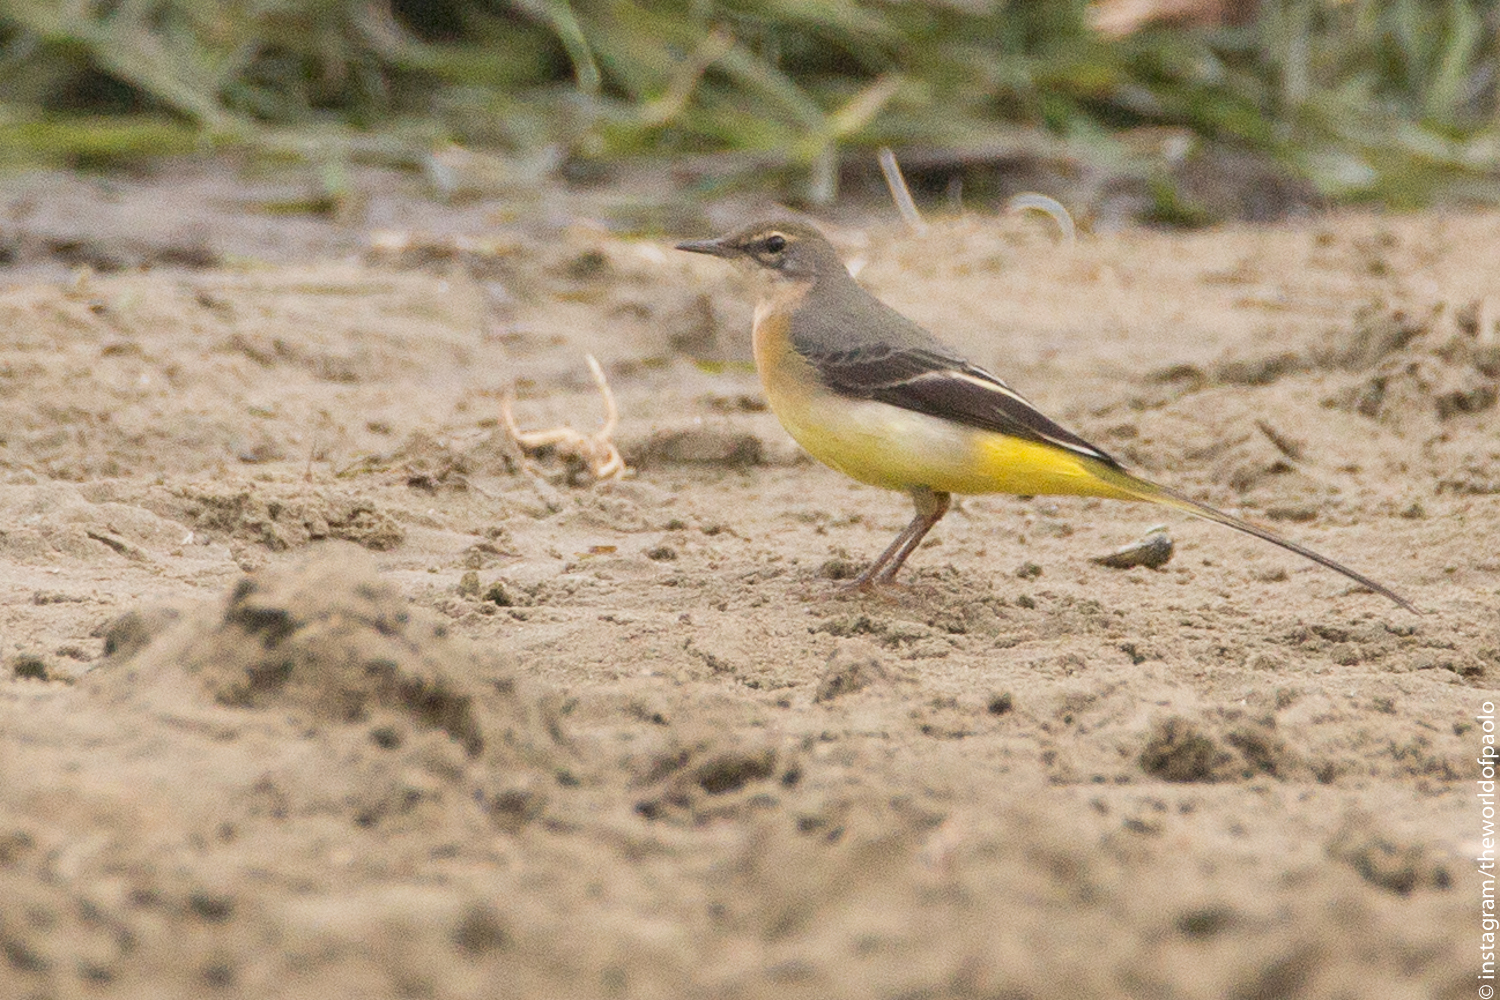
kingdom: Animalia
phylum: Chordata
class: Aves
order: Passeriformes
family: Motacillidae
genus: Motacilla
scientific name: Motacilla cinerea
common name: Grey wagtail
